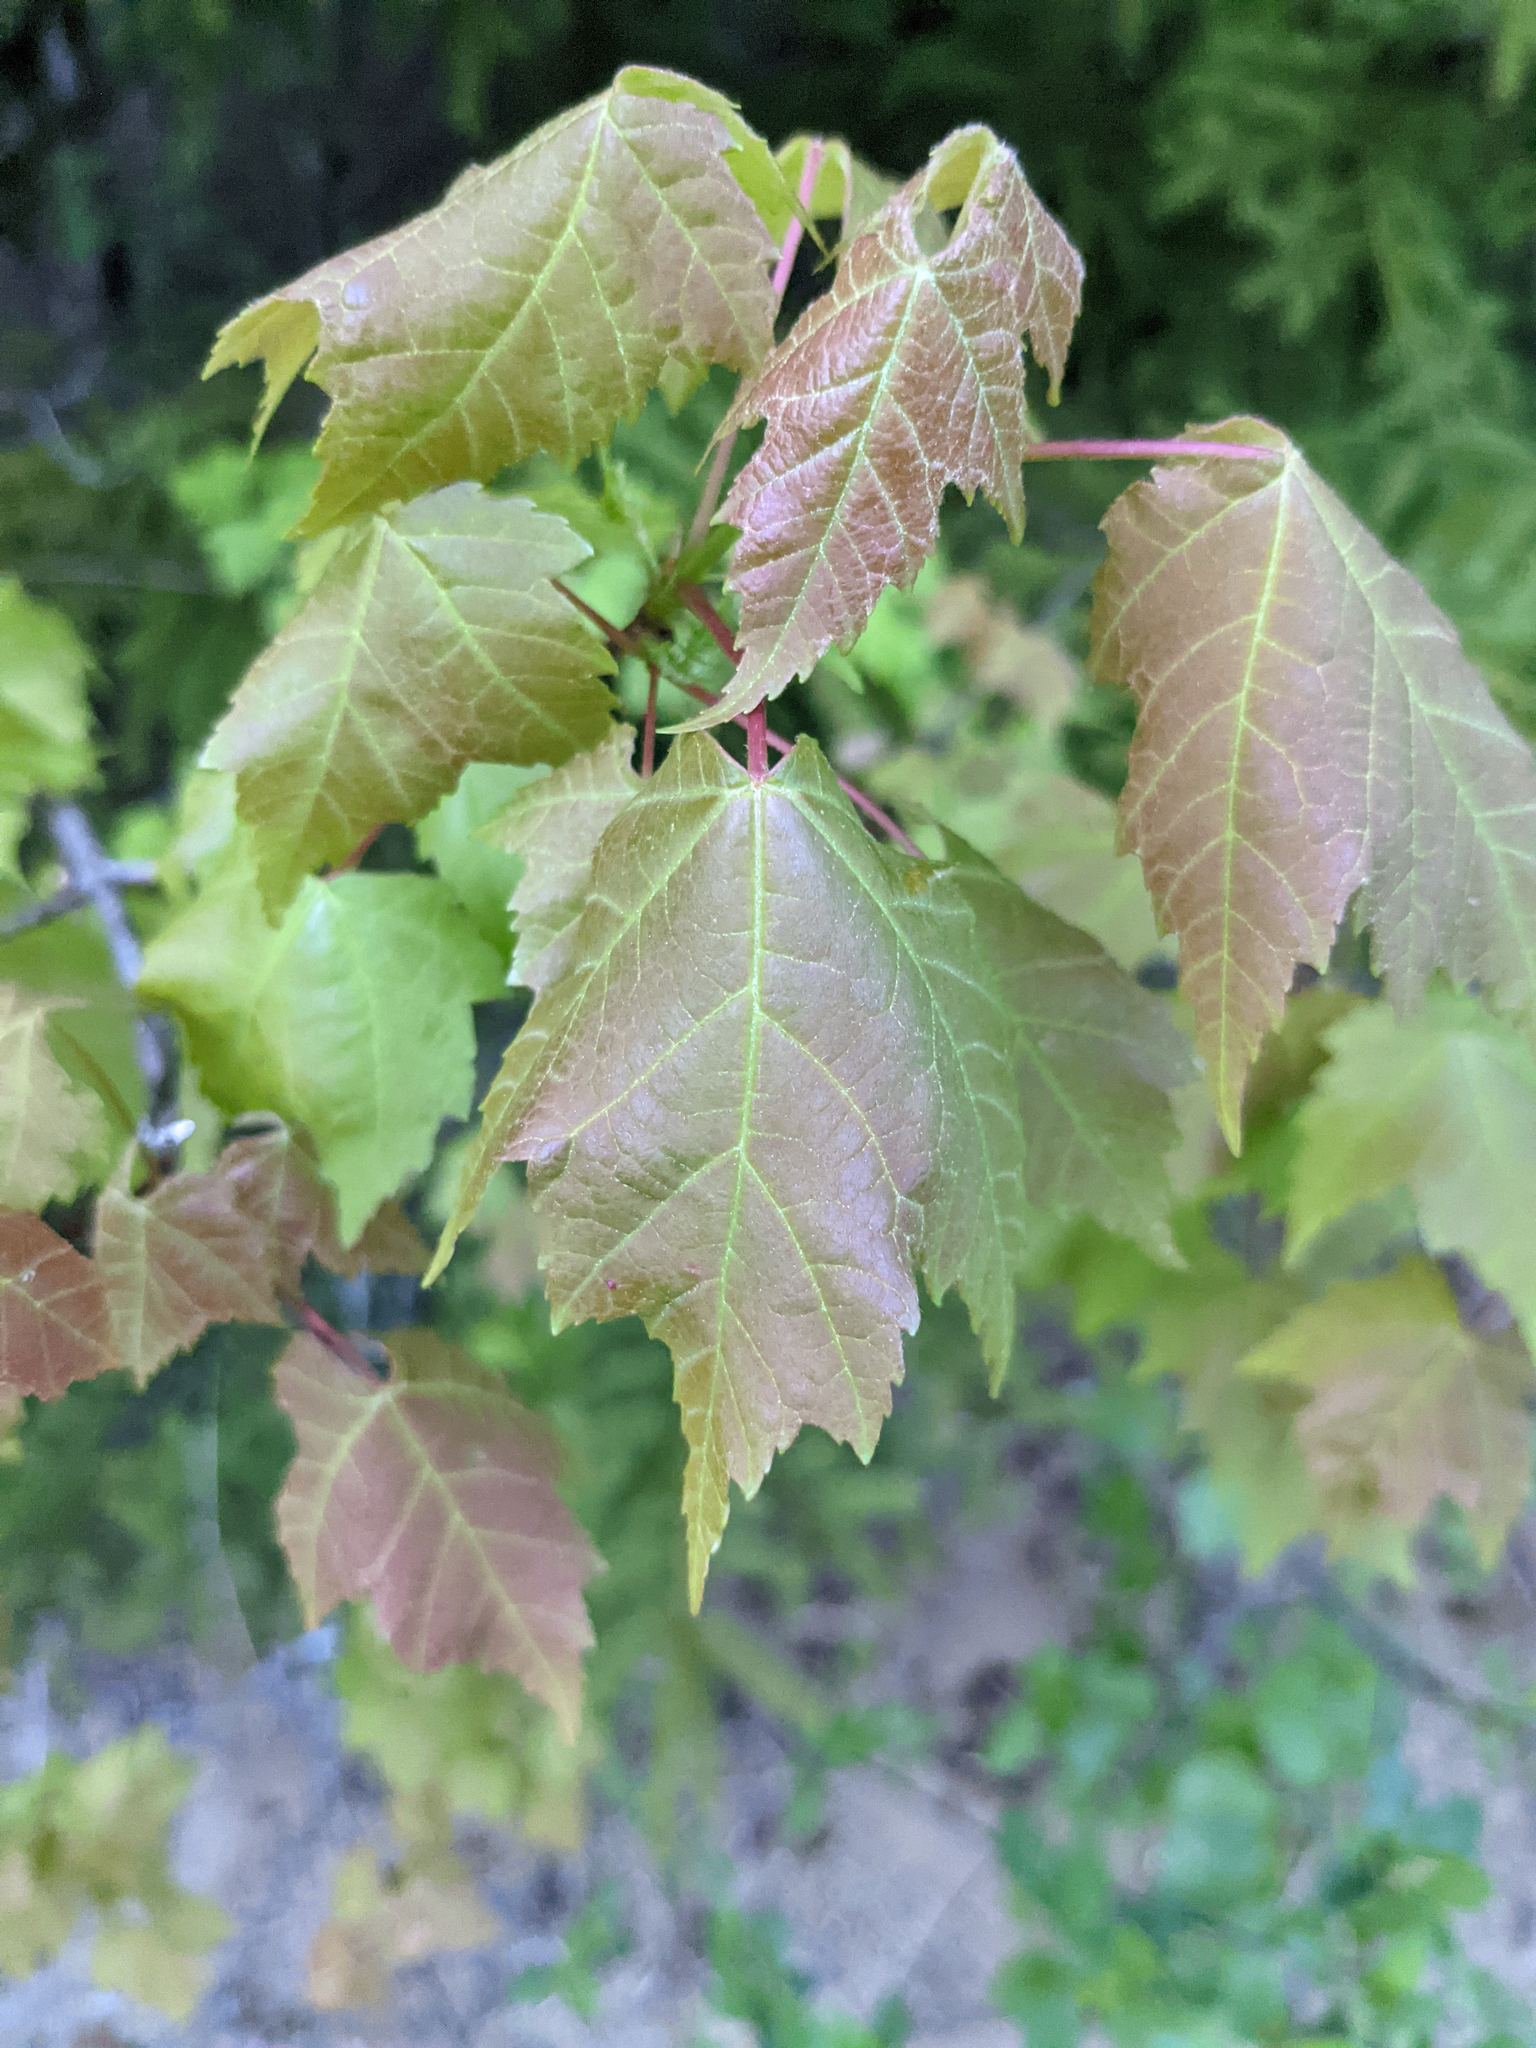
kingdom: Plantae
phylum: Tracheophyta
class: Magnoliopsida
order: Sapindales
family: Sapindaceae
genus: Acer
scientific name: Acer rubrum
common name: Red maple
